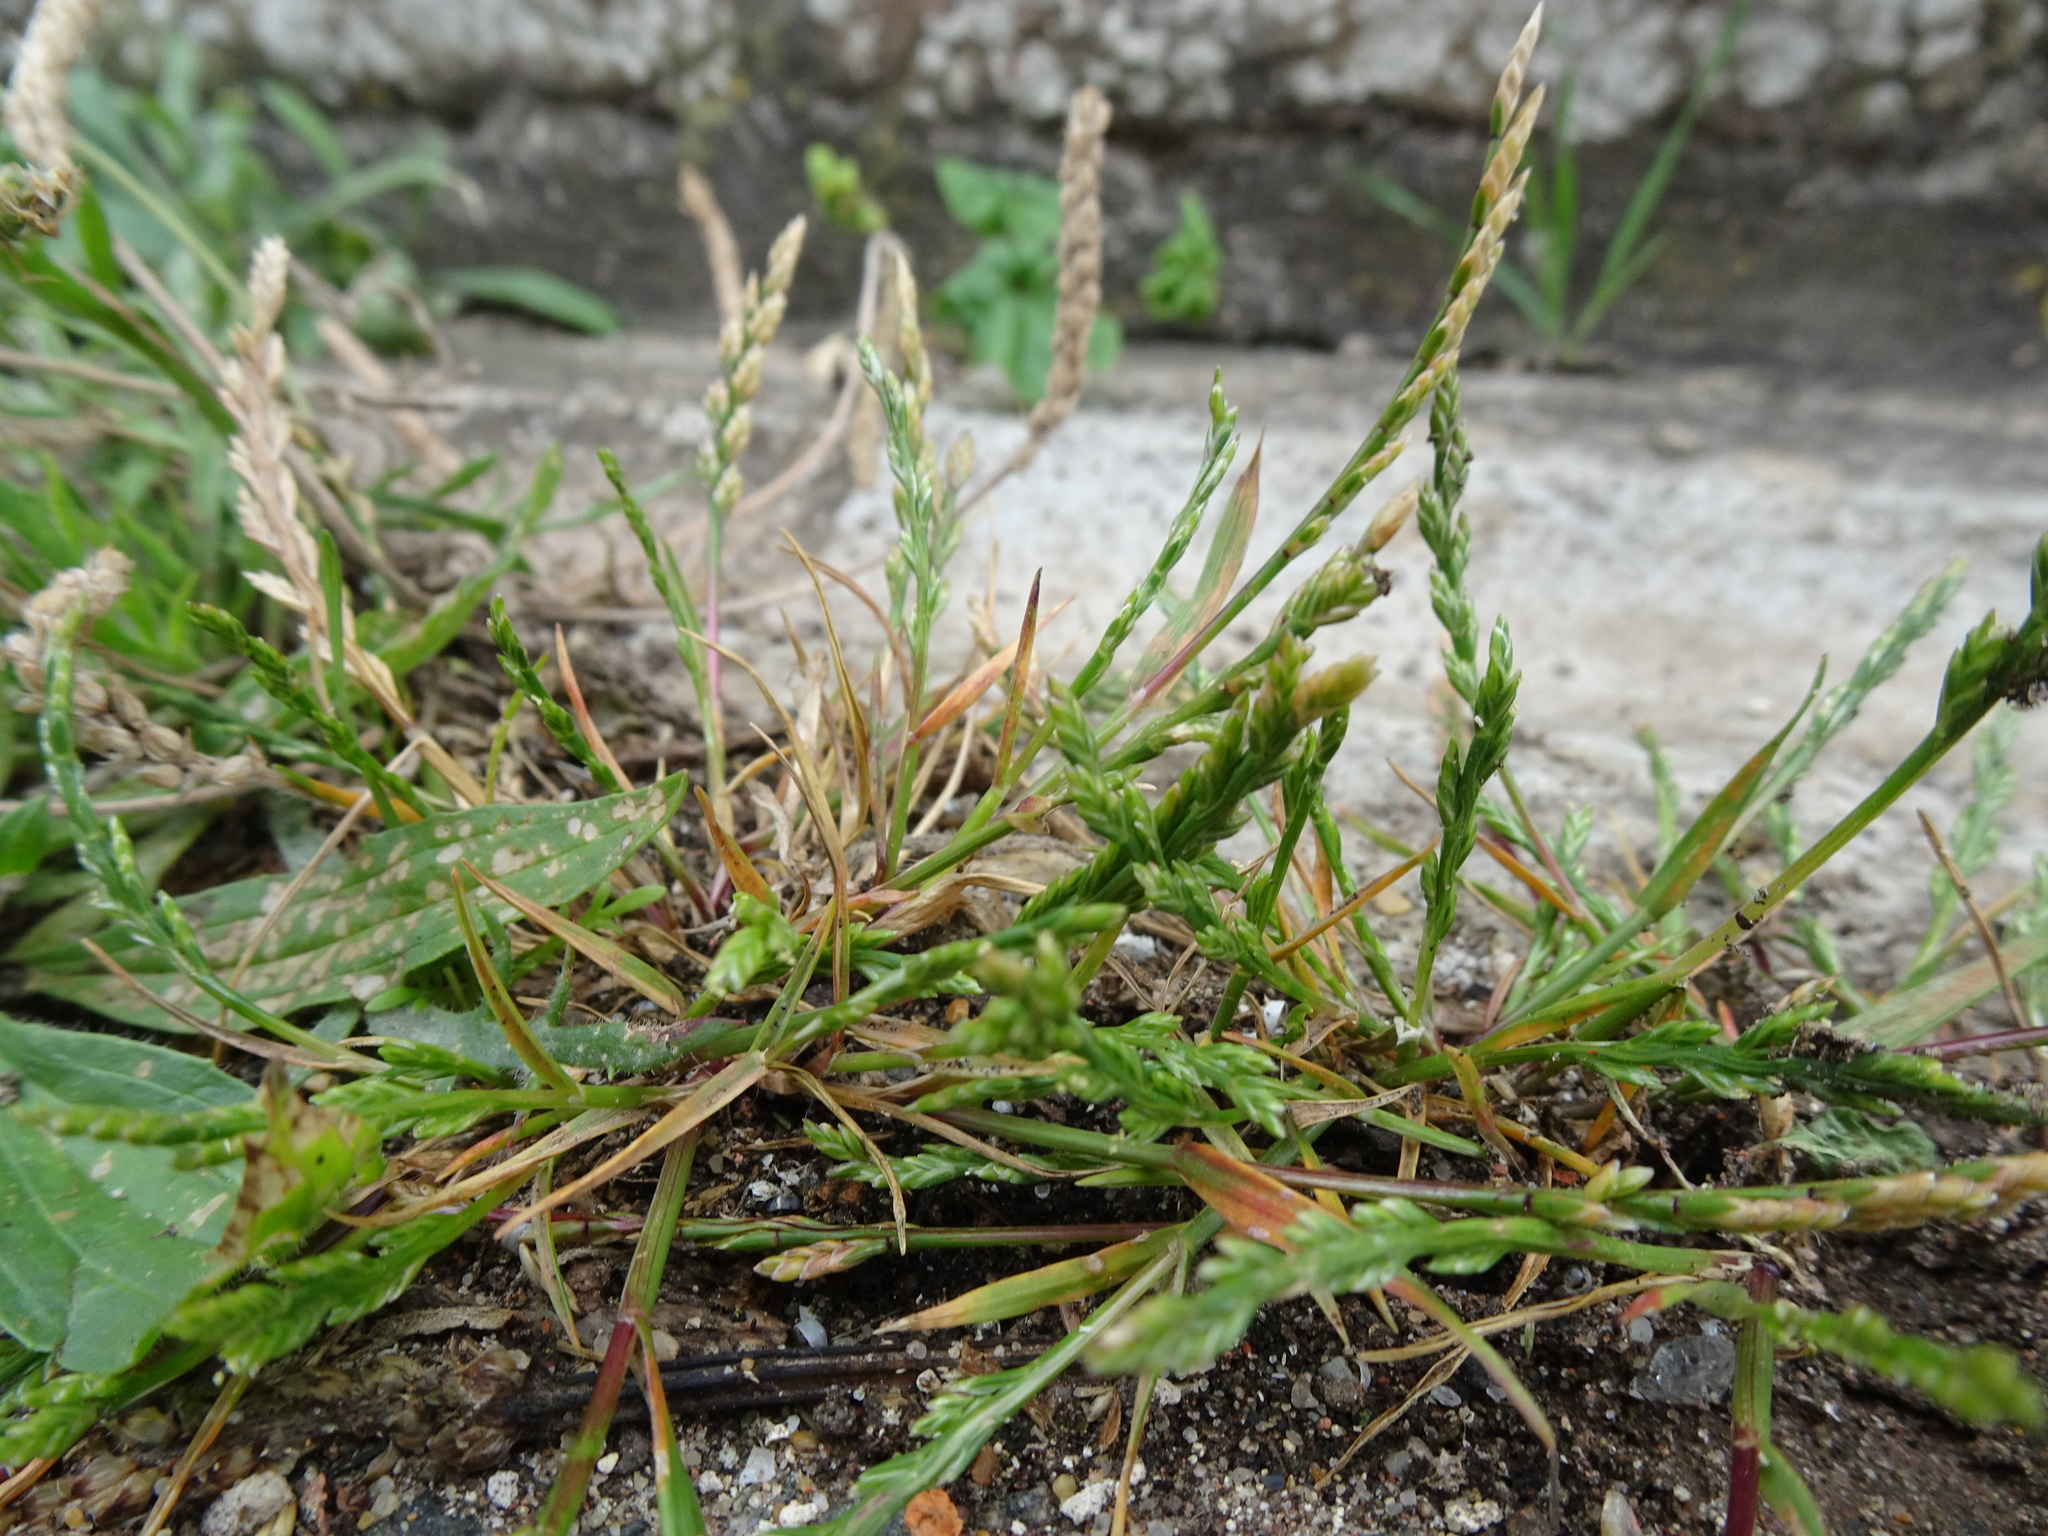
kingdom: Plantae
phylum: Tracheophyta
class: Liliopsida
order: Poales
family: Poaceae
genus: Catapodium
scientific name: Catapodium marinum
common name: Sea fern-grass
